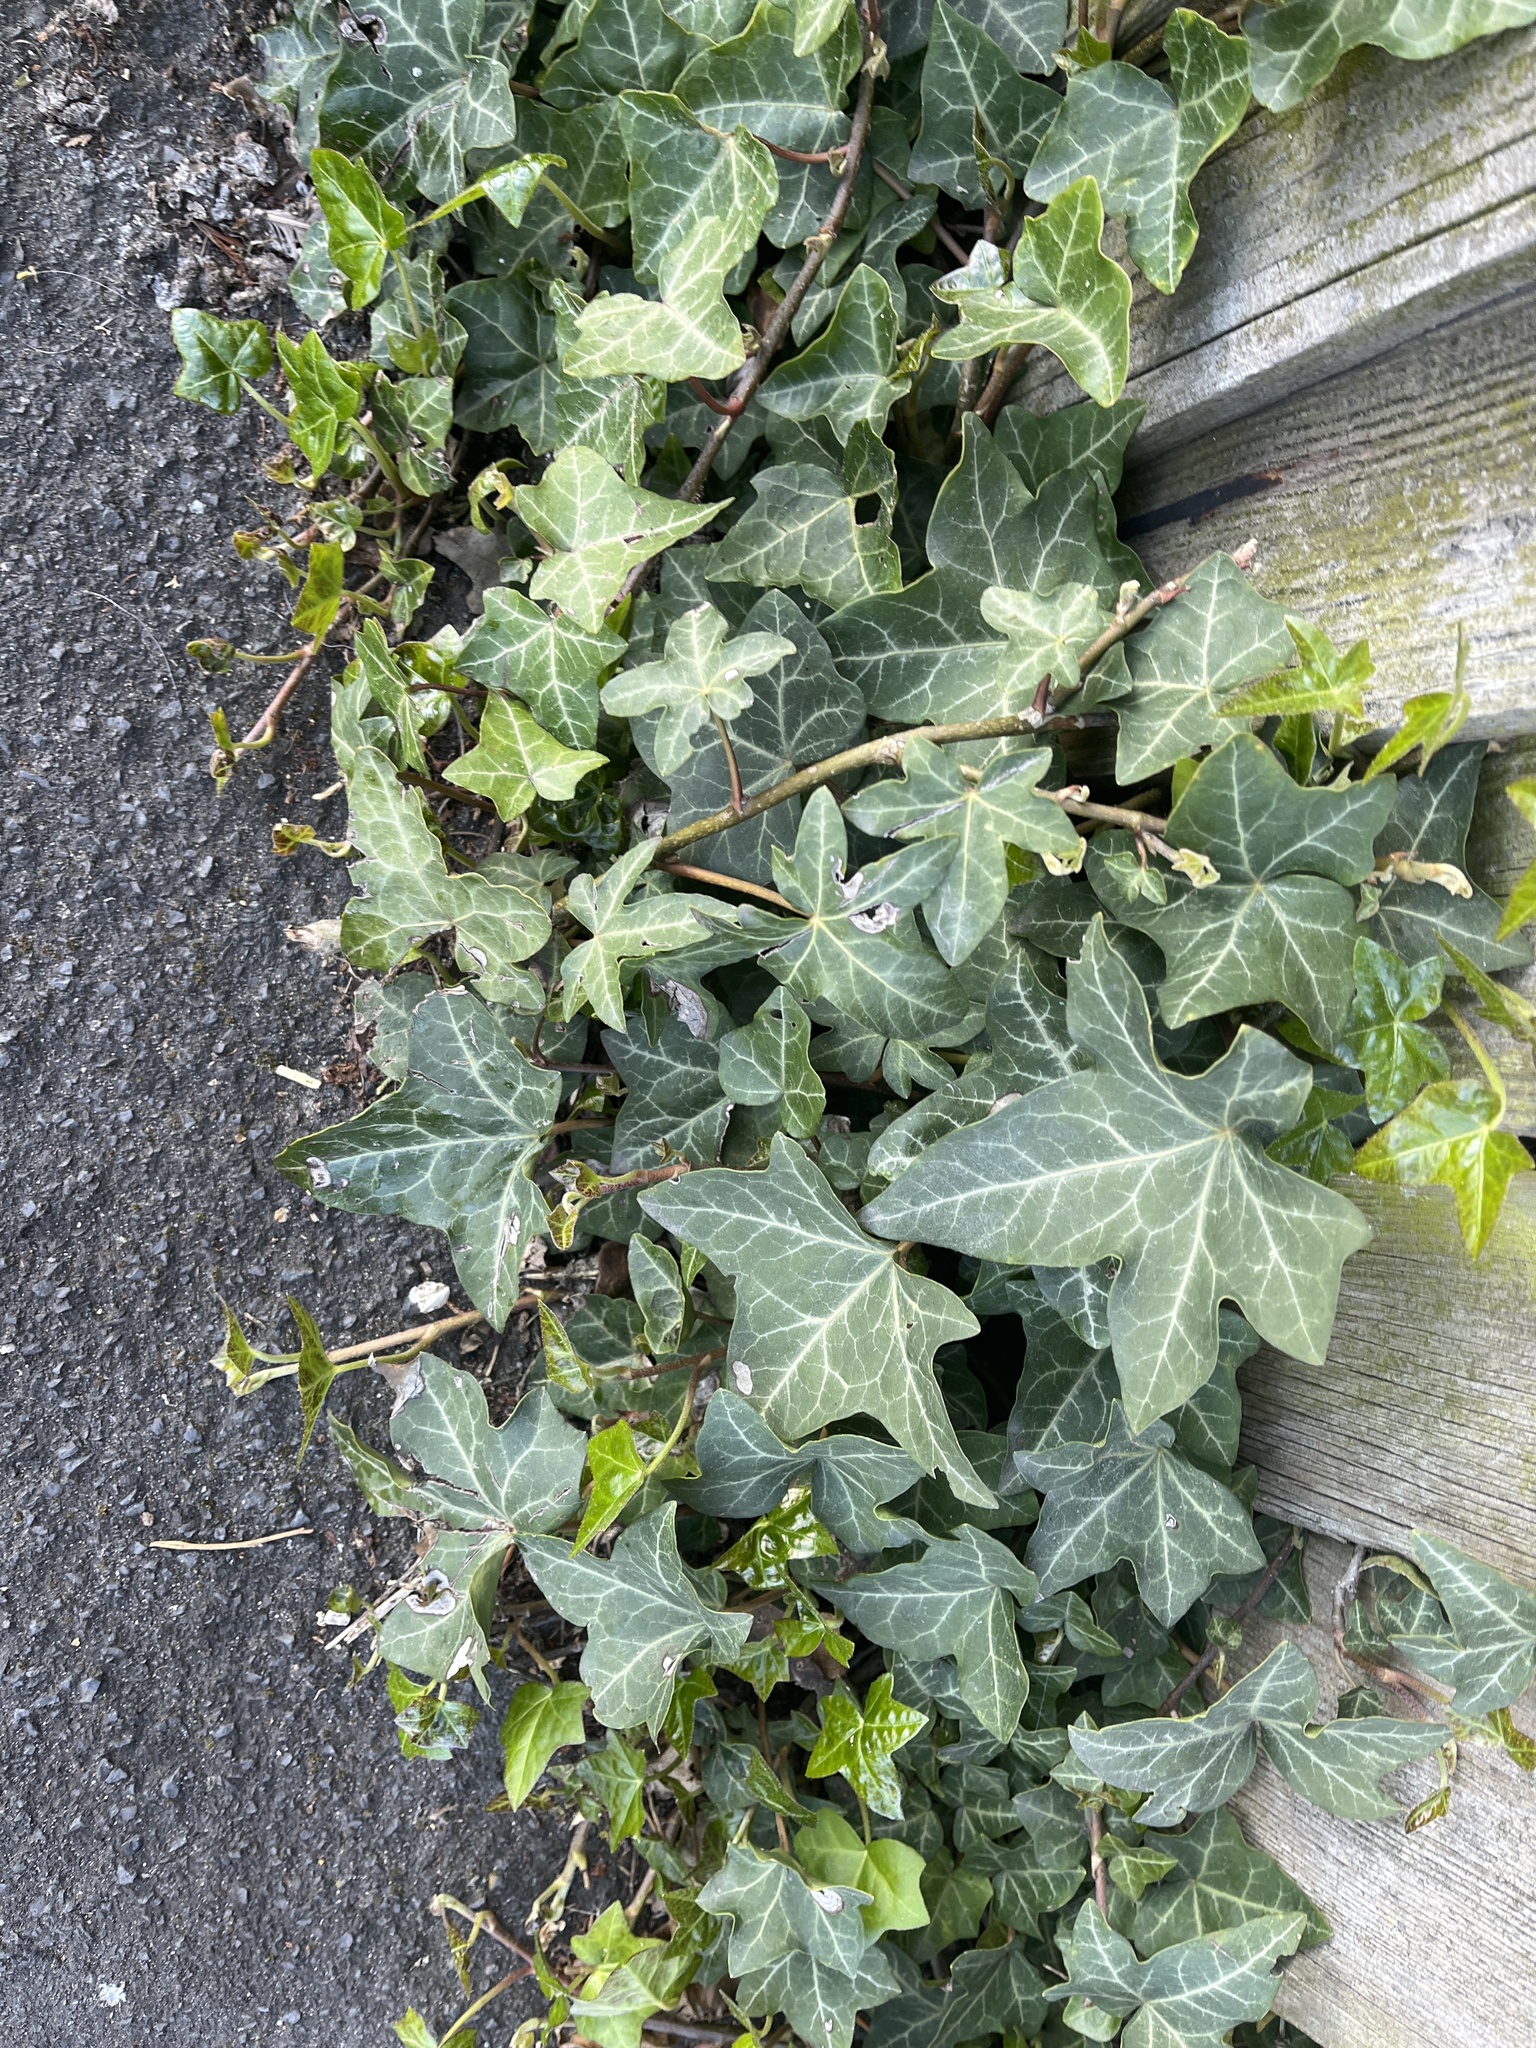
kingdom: Plantae
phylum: Tracheophyta
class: Magnoliopsida
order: Apiales
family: Araliaceae
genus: Hedera
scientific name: Hedera helix
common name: Ivy
